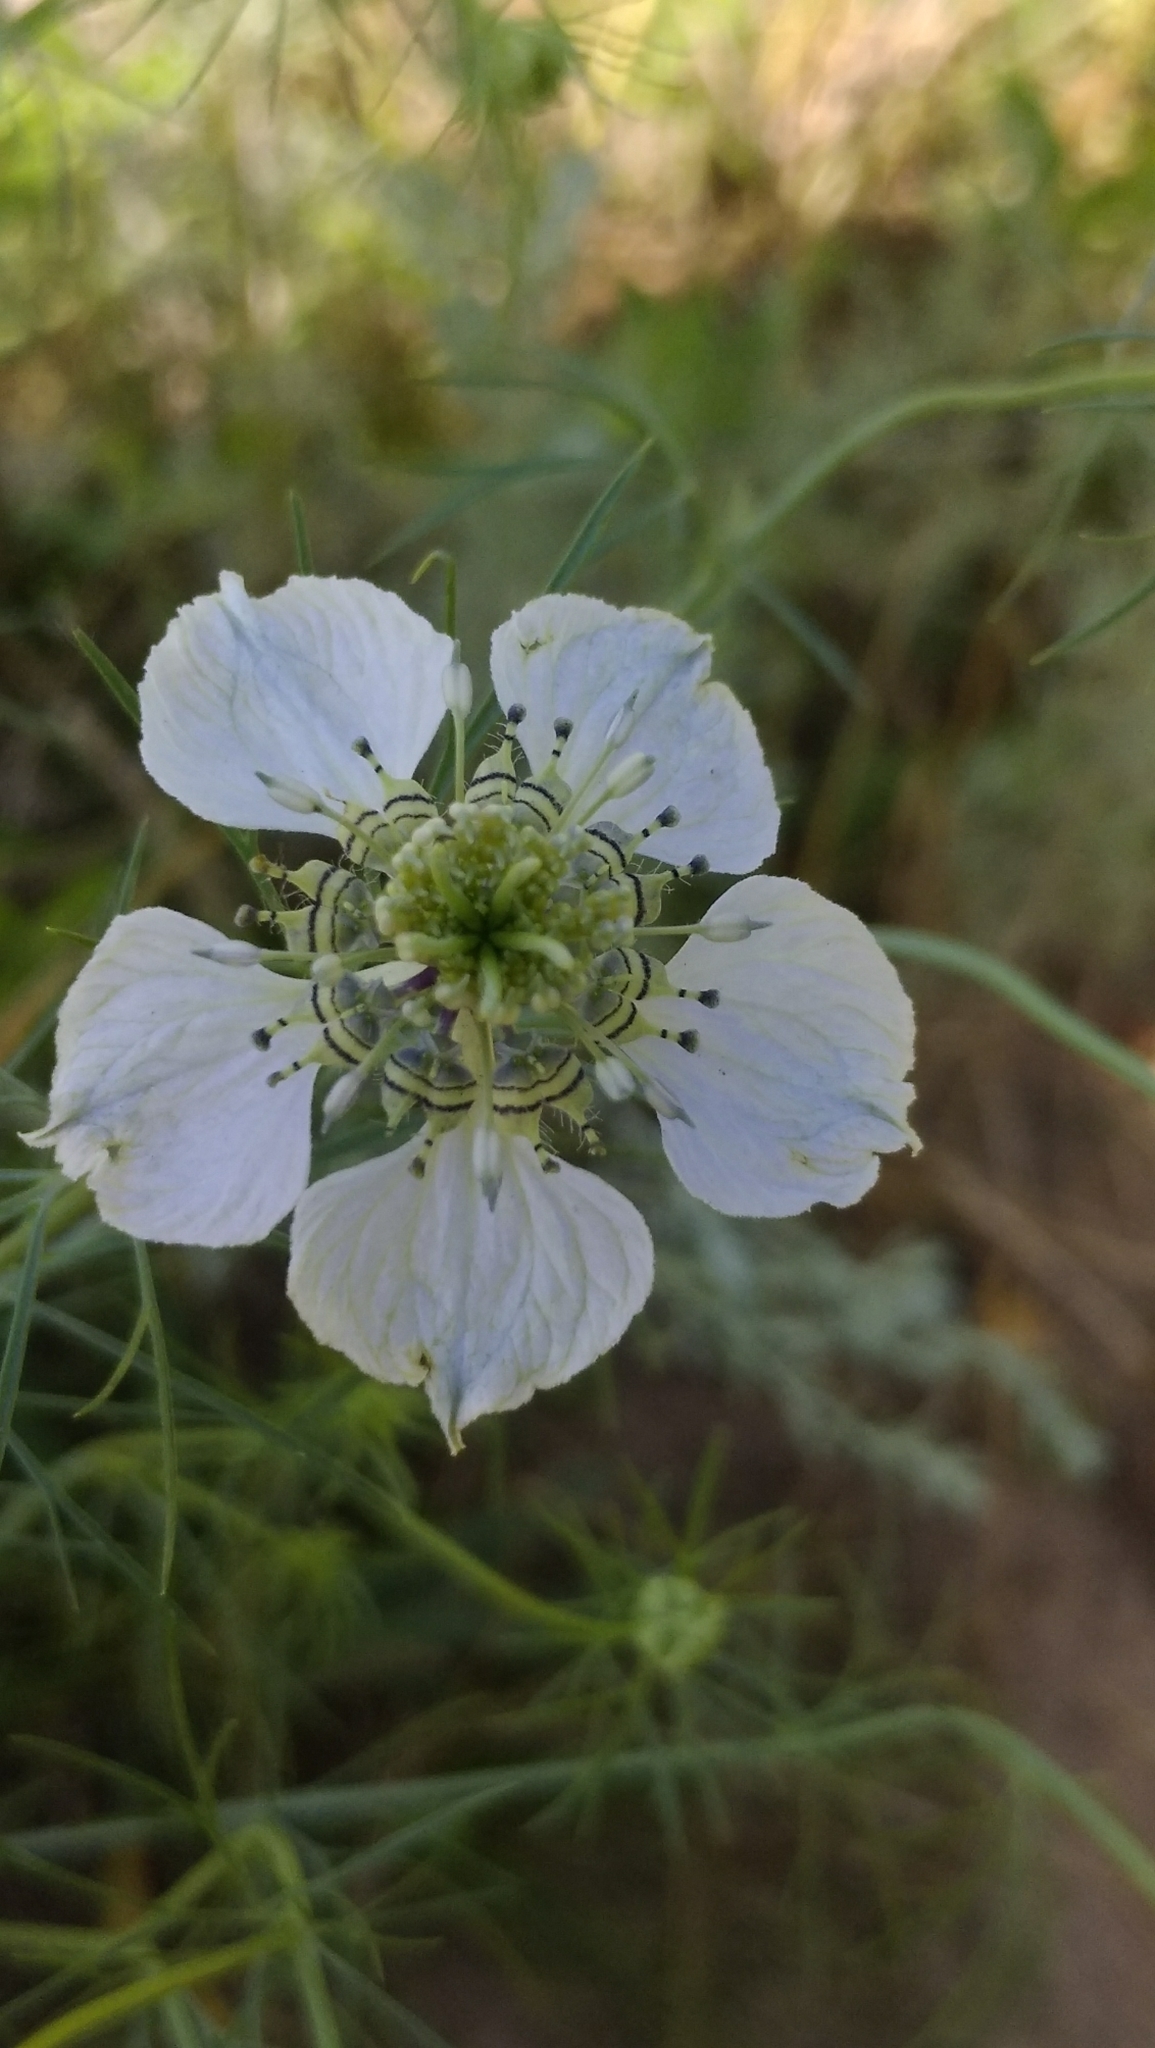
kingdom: Plantae
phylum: Tracheophyta
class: Magnoliopsida
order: Ranunculales
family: Ranunculaceae
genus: Nigella
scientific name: Nigella arvensis
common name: Wild fennel-flower
